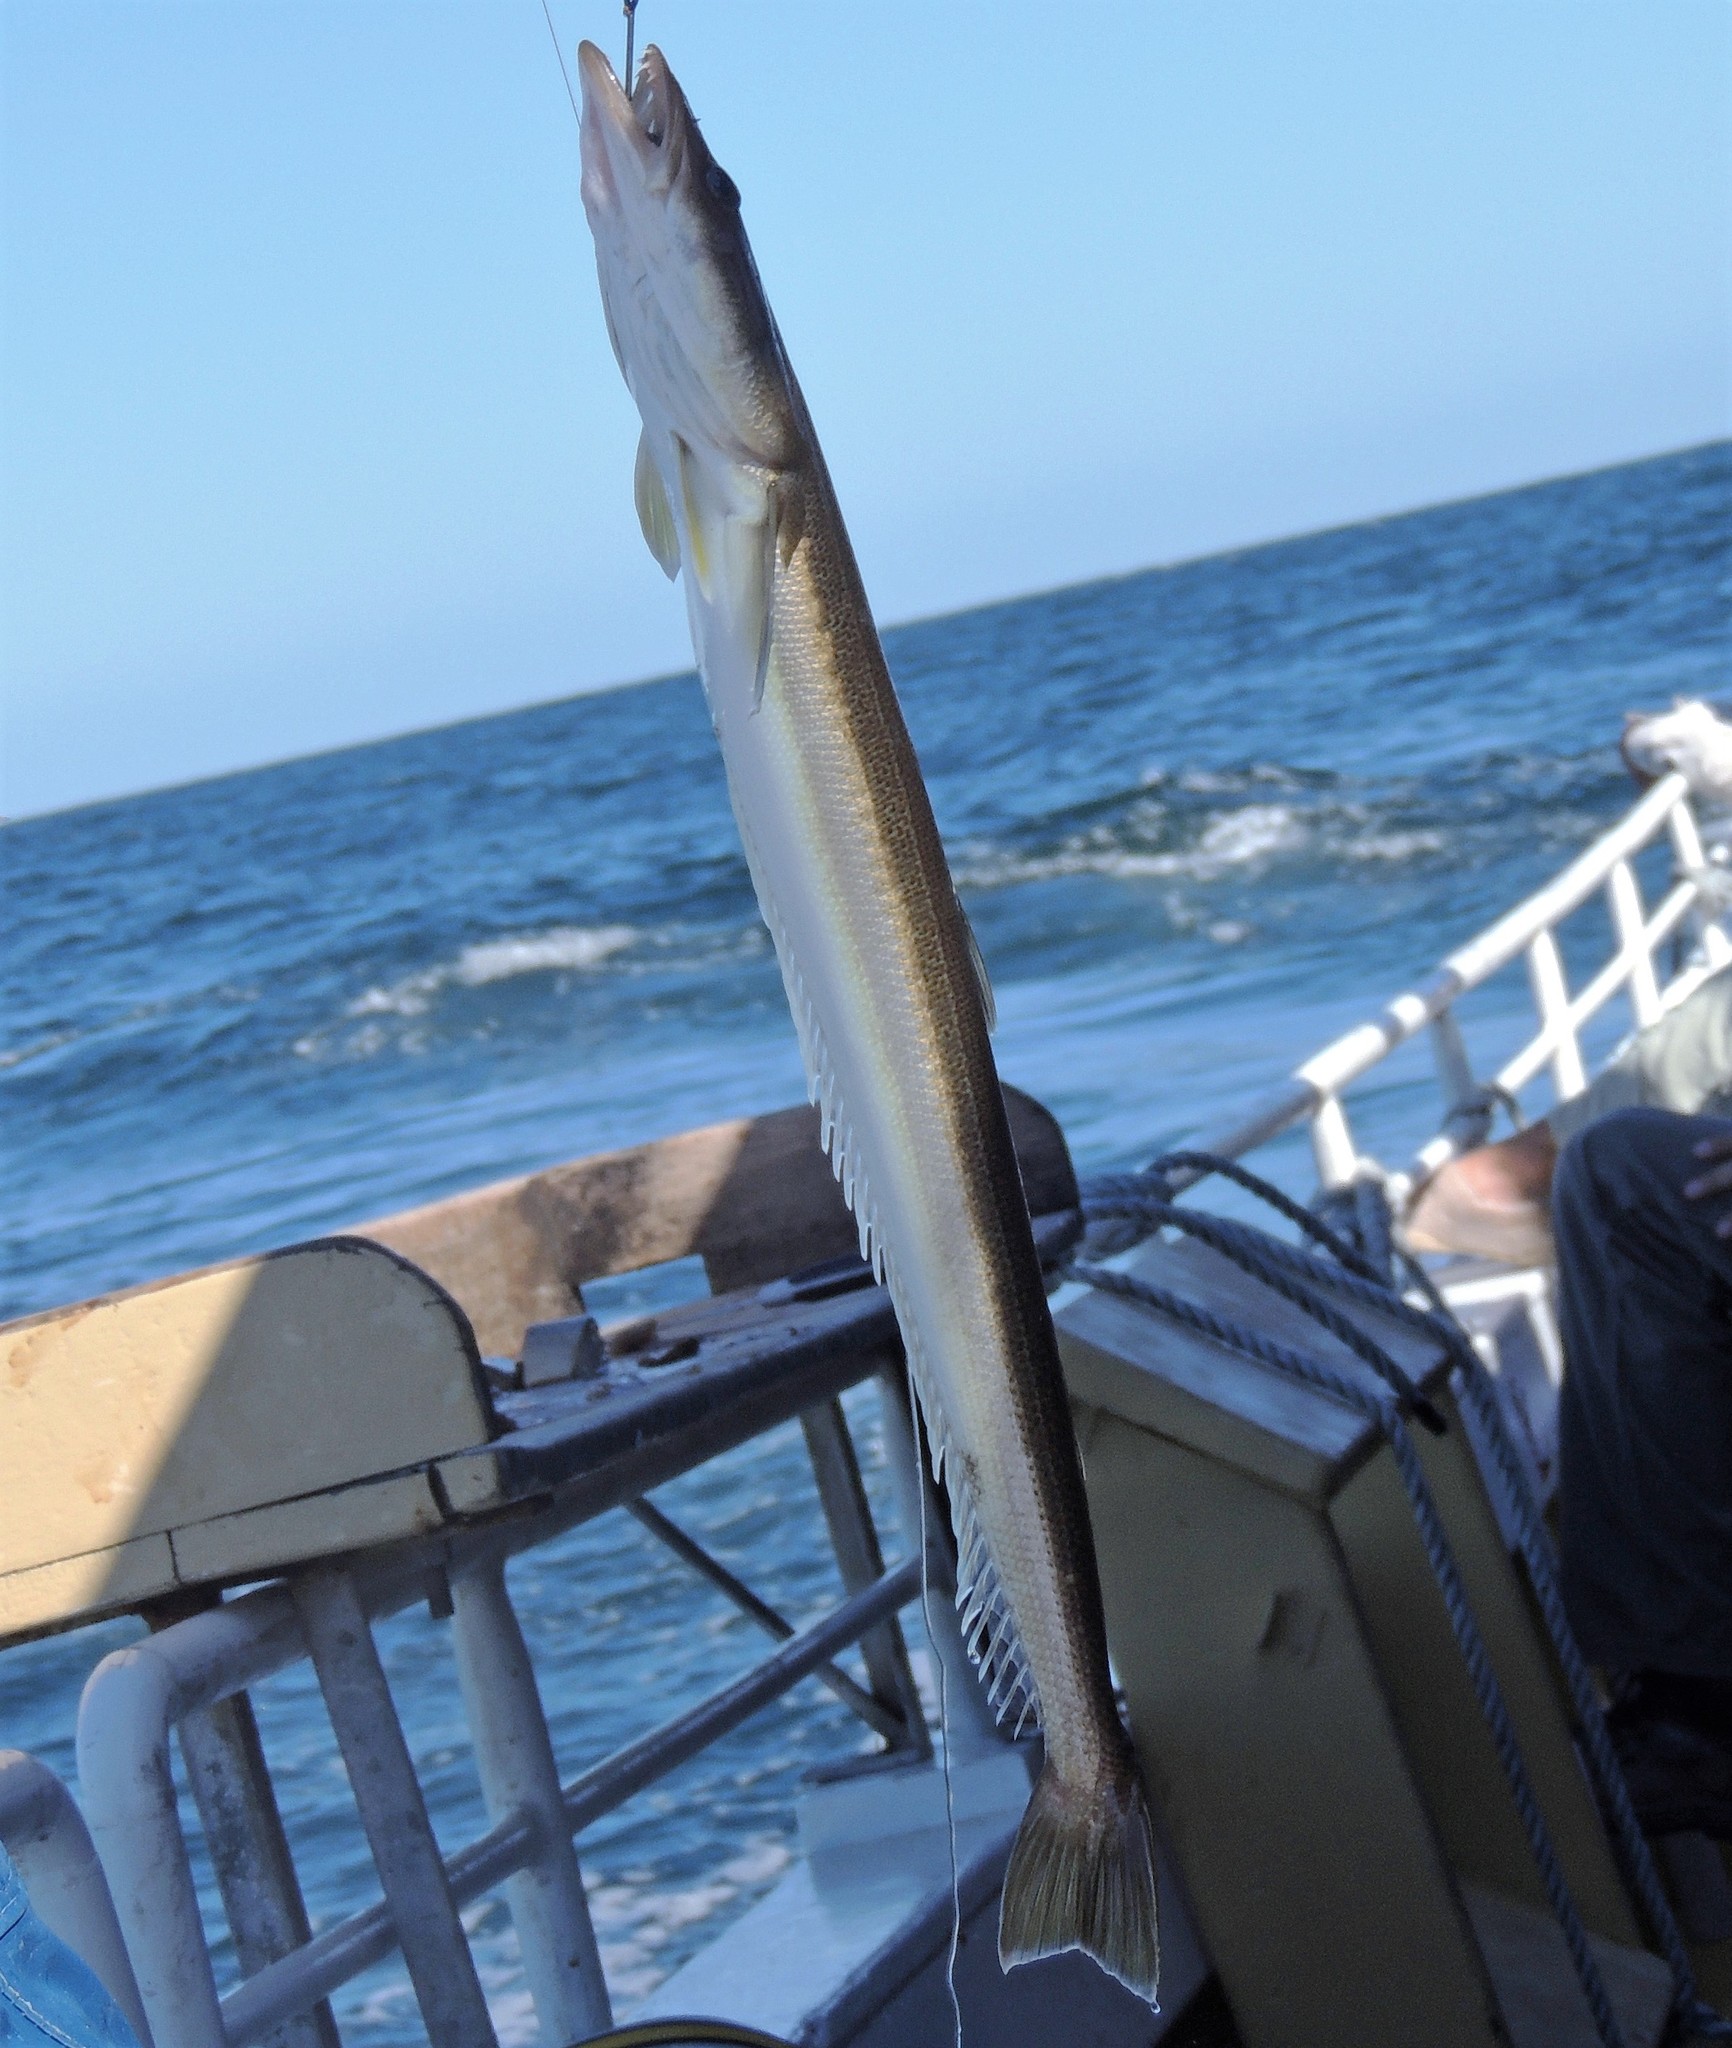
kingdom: Animalia
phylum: Chordata
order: Perciformes
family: Percophidae
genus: Percophis
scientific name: Percophis brasiliensis
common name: Brazilian flathead
